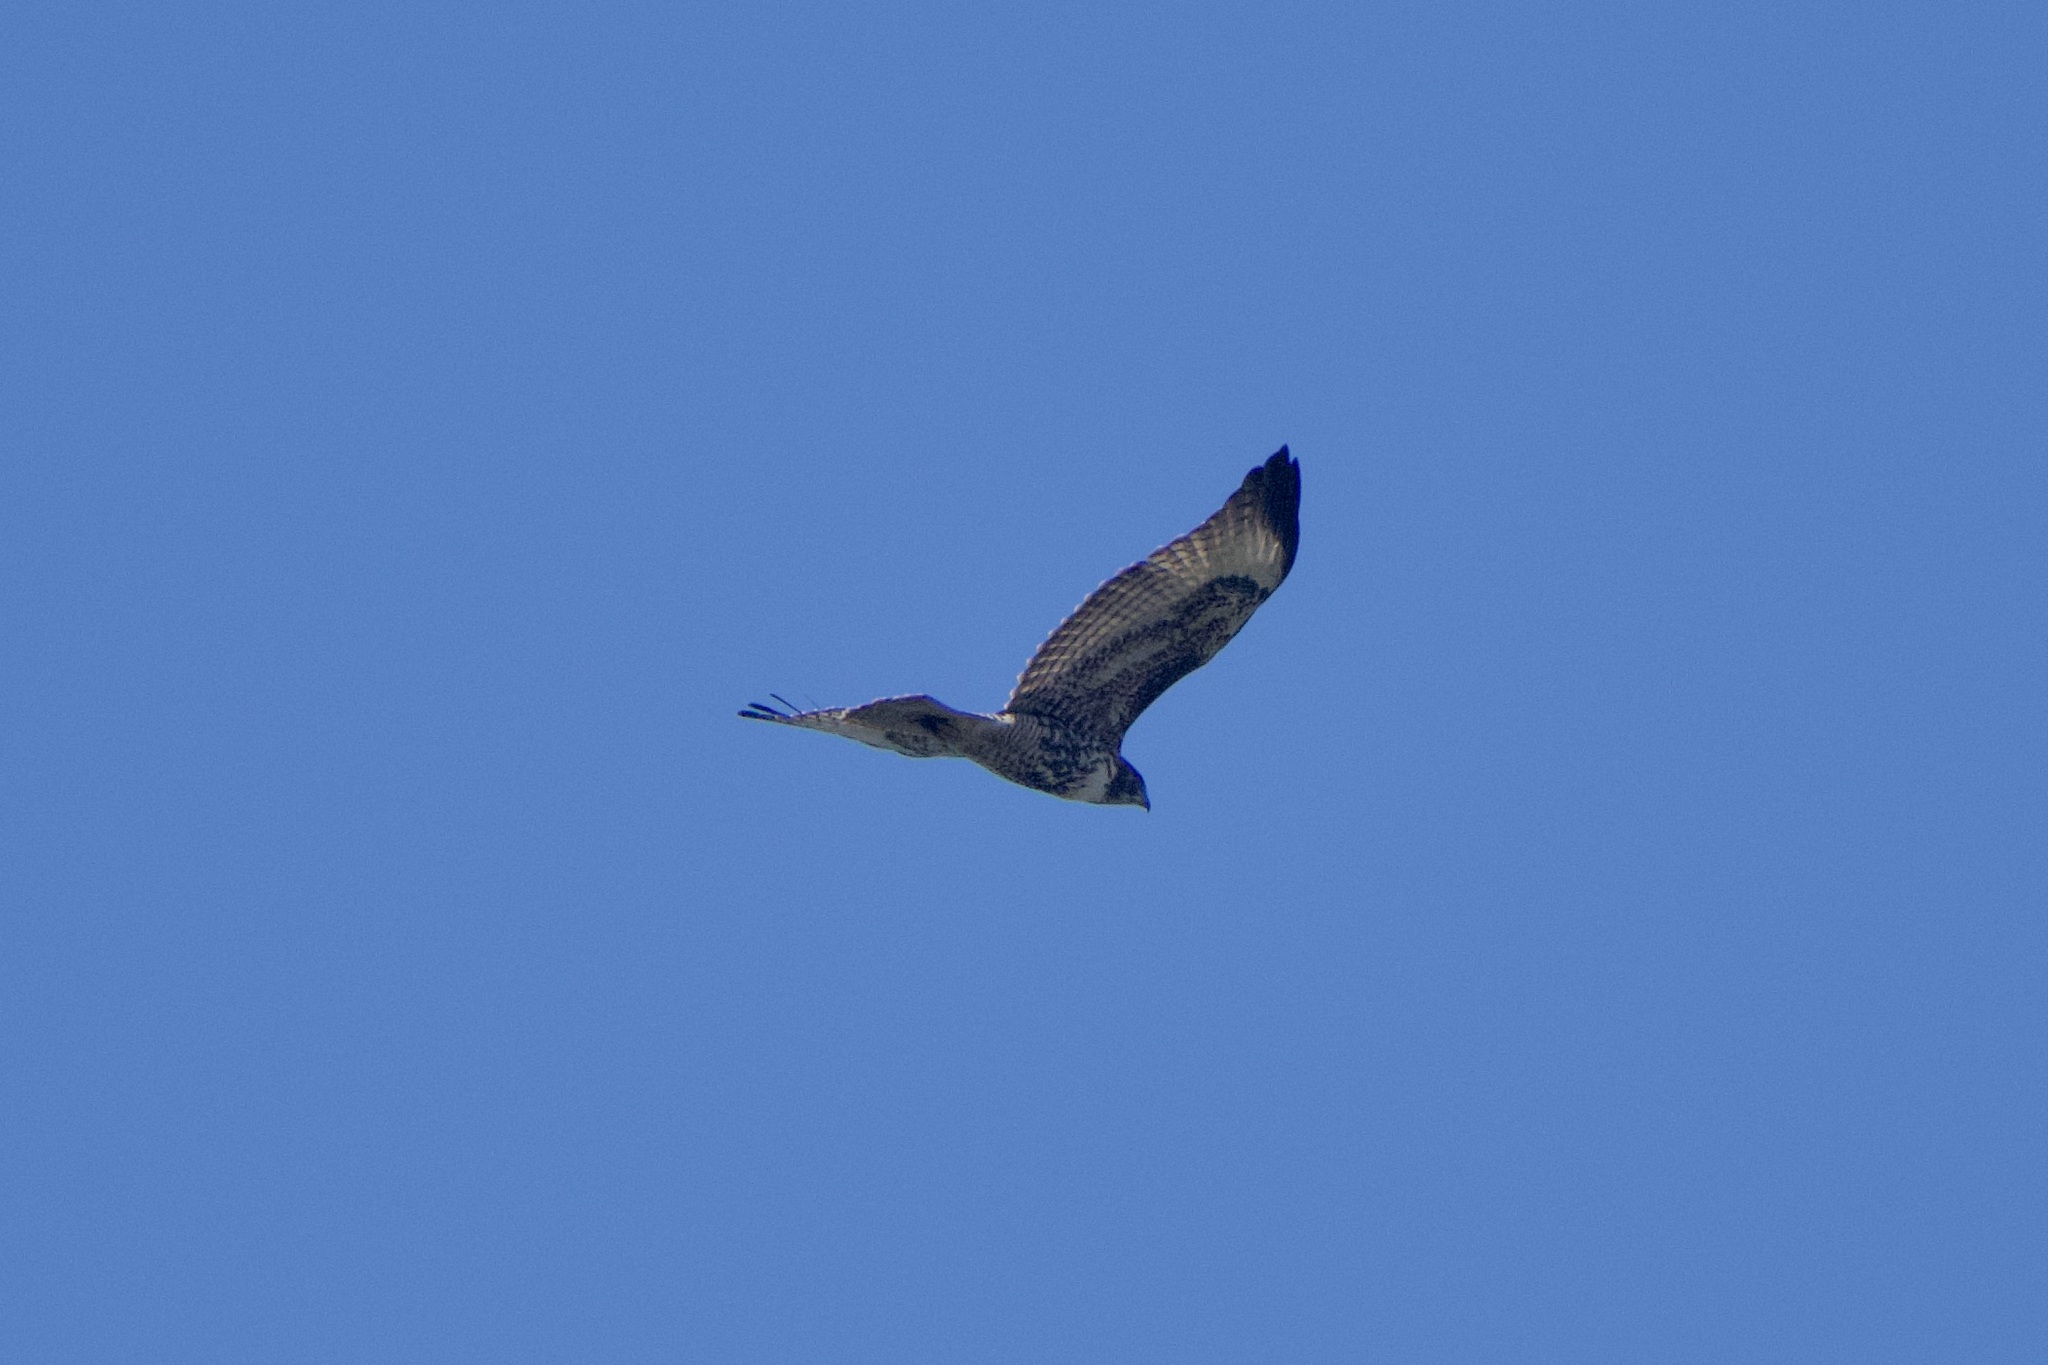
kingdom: Animalia
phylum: Chordata
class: Aves
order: Accipitriformes
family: Accipitridae
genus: Buteo
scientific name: Buteo jamaicensis
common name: Red-tailed hawk
